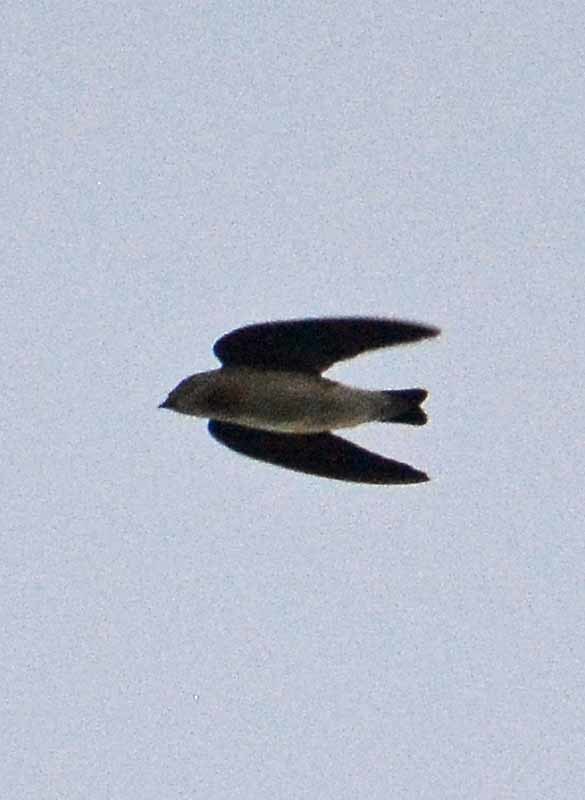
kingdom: Animalia
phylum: Chordata
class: Aves
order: Passeriformes
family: Hirundinidae
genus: Progne
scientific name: Progne chalybea
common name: Grey-breasted martin
